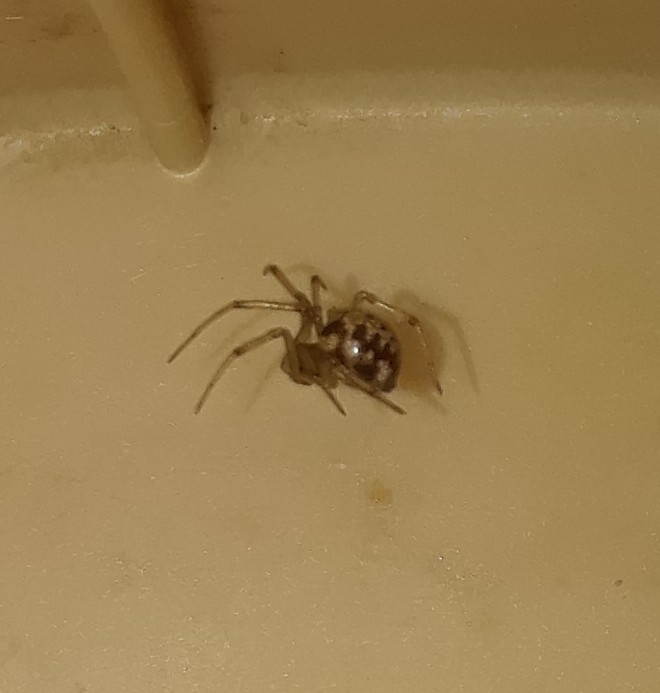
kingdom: Animalia
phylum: Arthropoda
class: Arachnida
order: Araneae
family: Theridiidae
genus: Steatoda
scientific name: Steatoda triangulosa
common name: Triangulate bud spider
